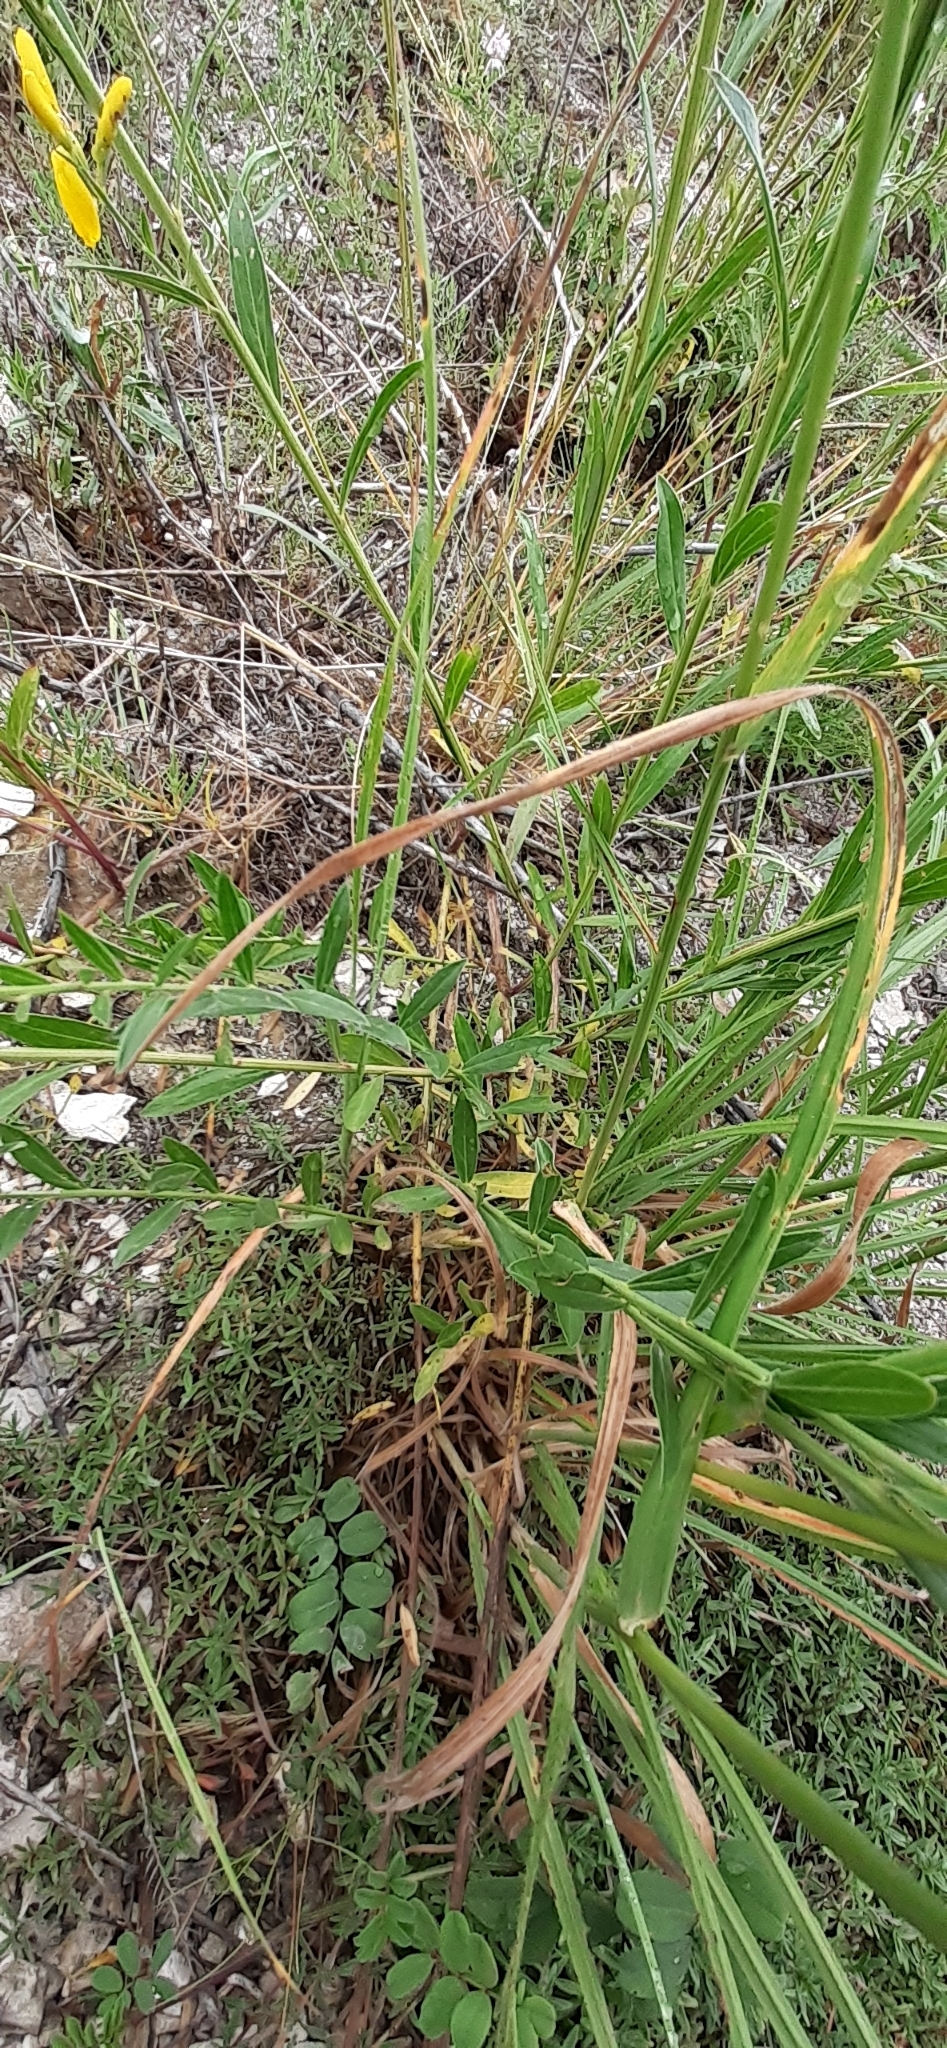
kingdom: Plantae
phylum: Tracheophyta
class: Magnoliopsida
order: Fabales
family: Fabaceae
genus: Genista
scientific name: Genista tinctoria
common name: Dyer's greenweed
